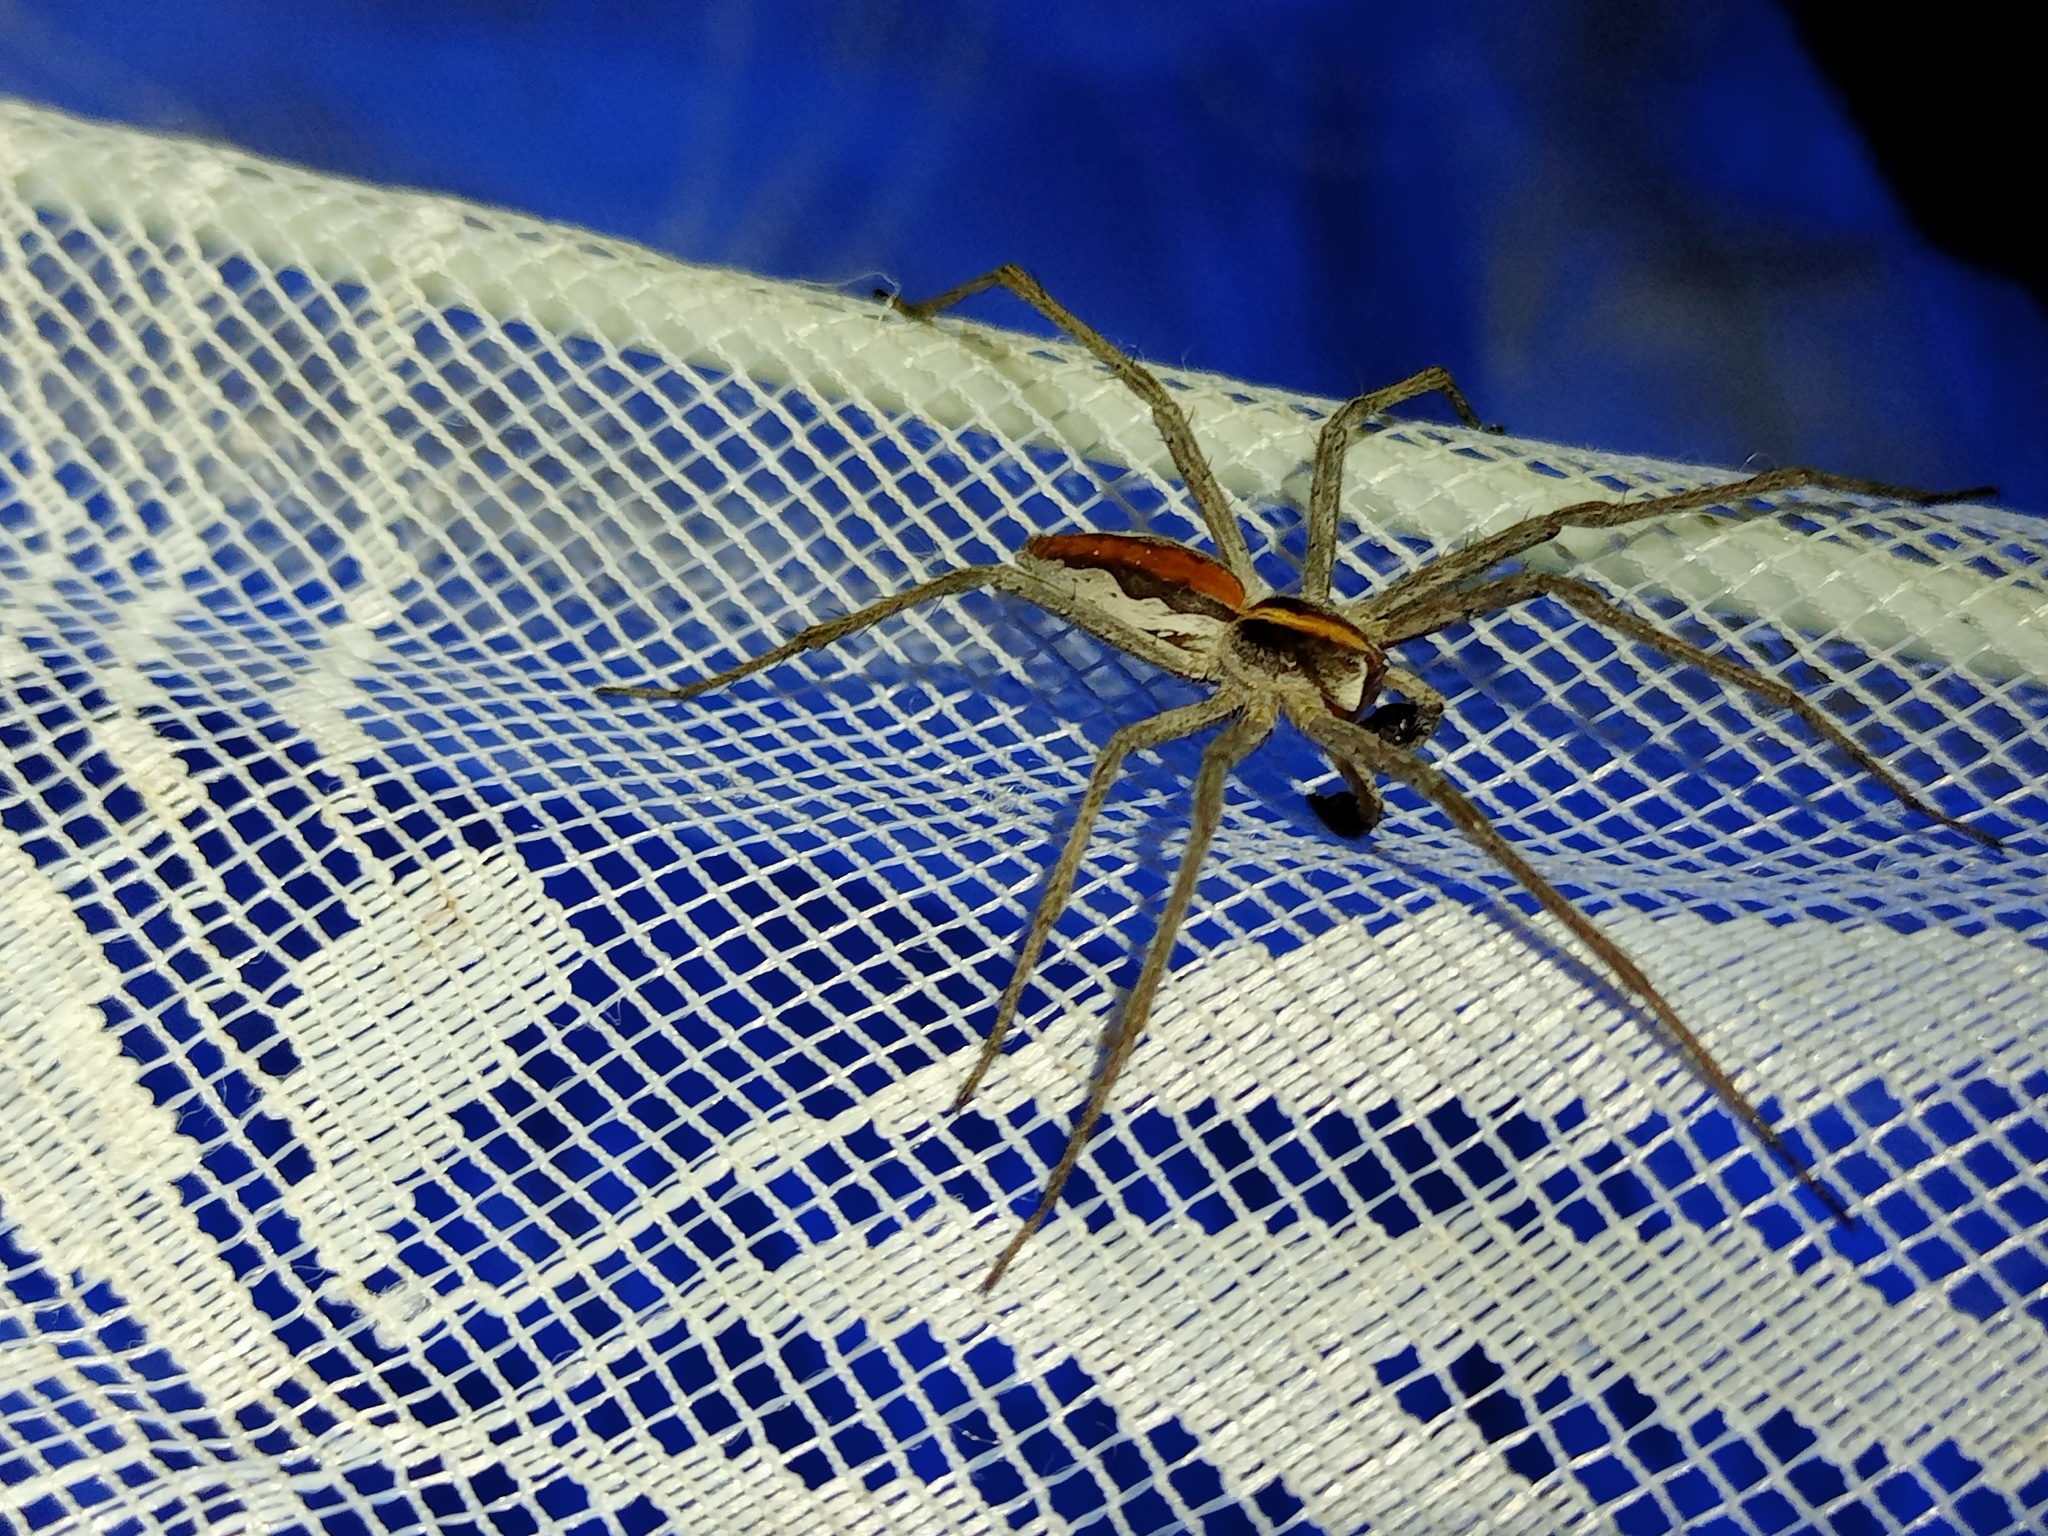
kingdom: Animalia
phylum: Arthropoda
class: Arachnida
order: Araneae
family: Pisauridae
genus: Pisaura
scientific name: Pisaura mirabilis
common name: Tent spider
